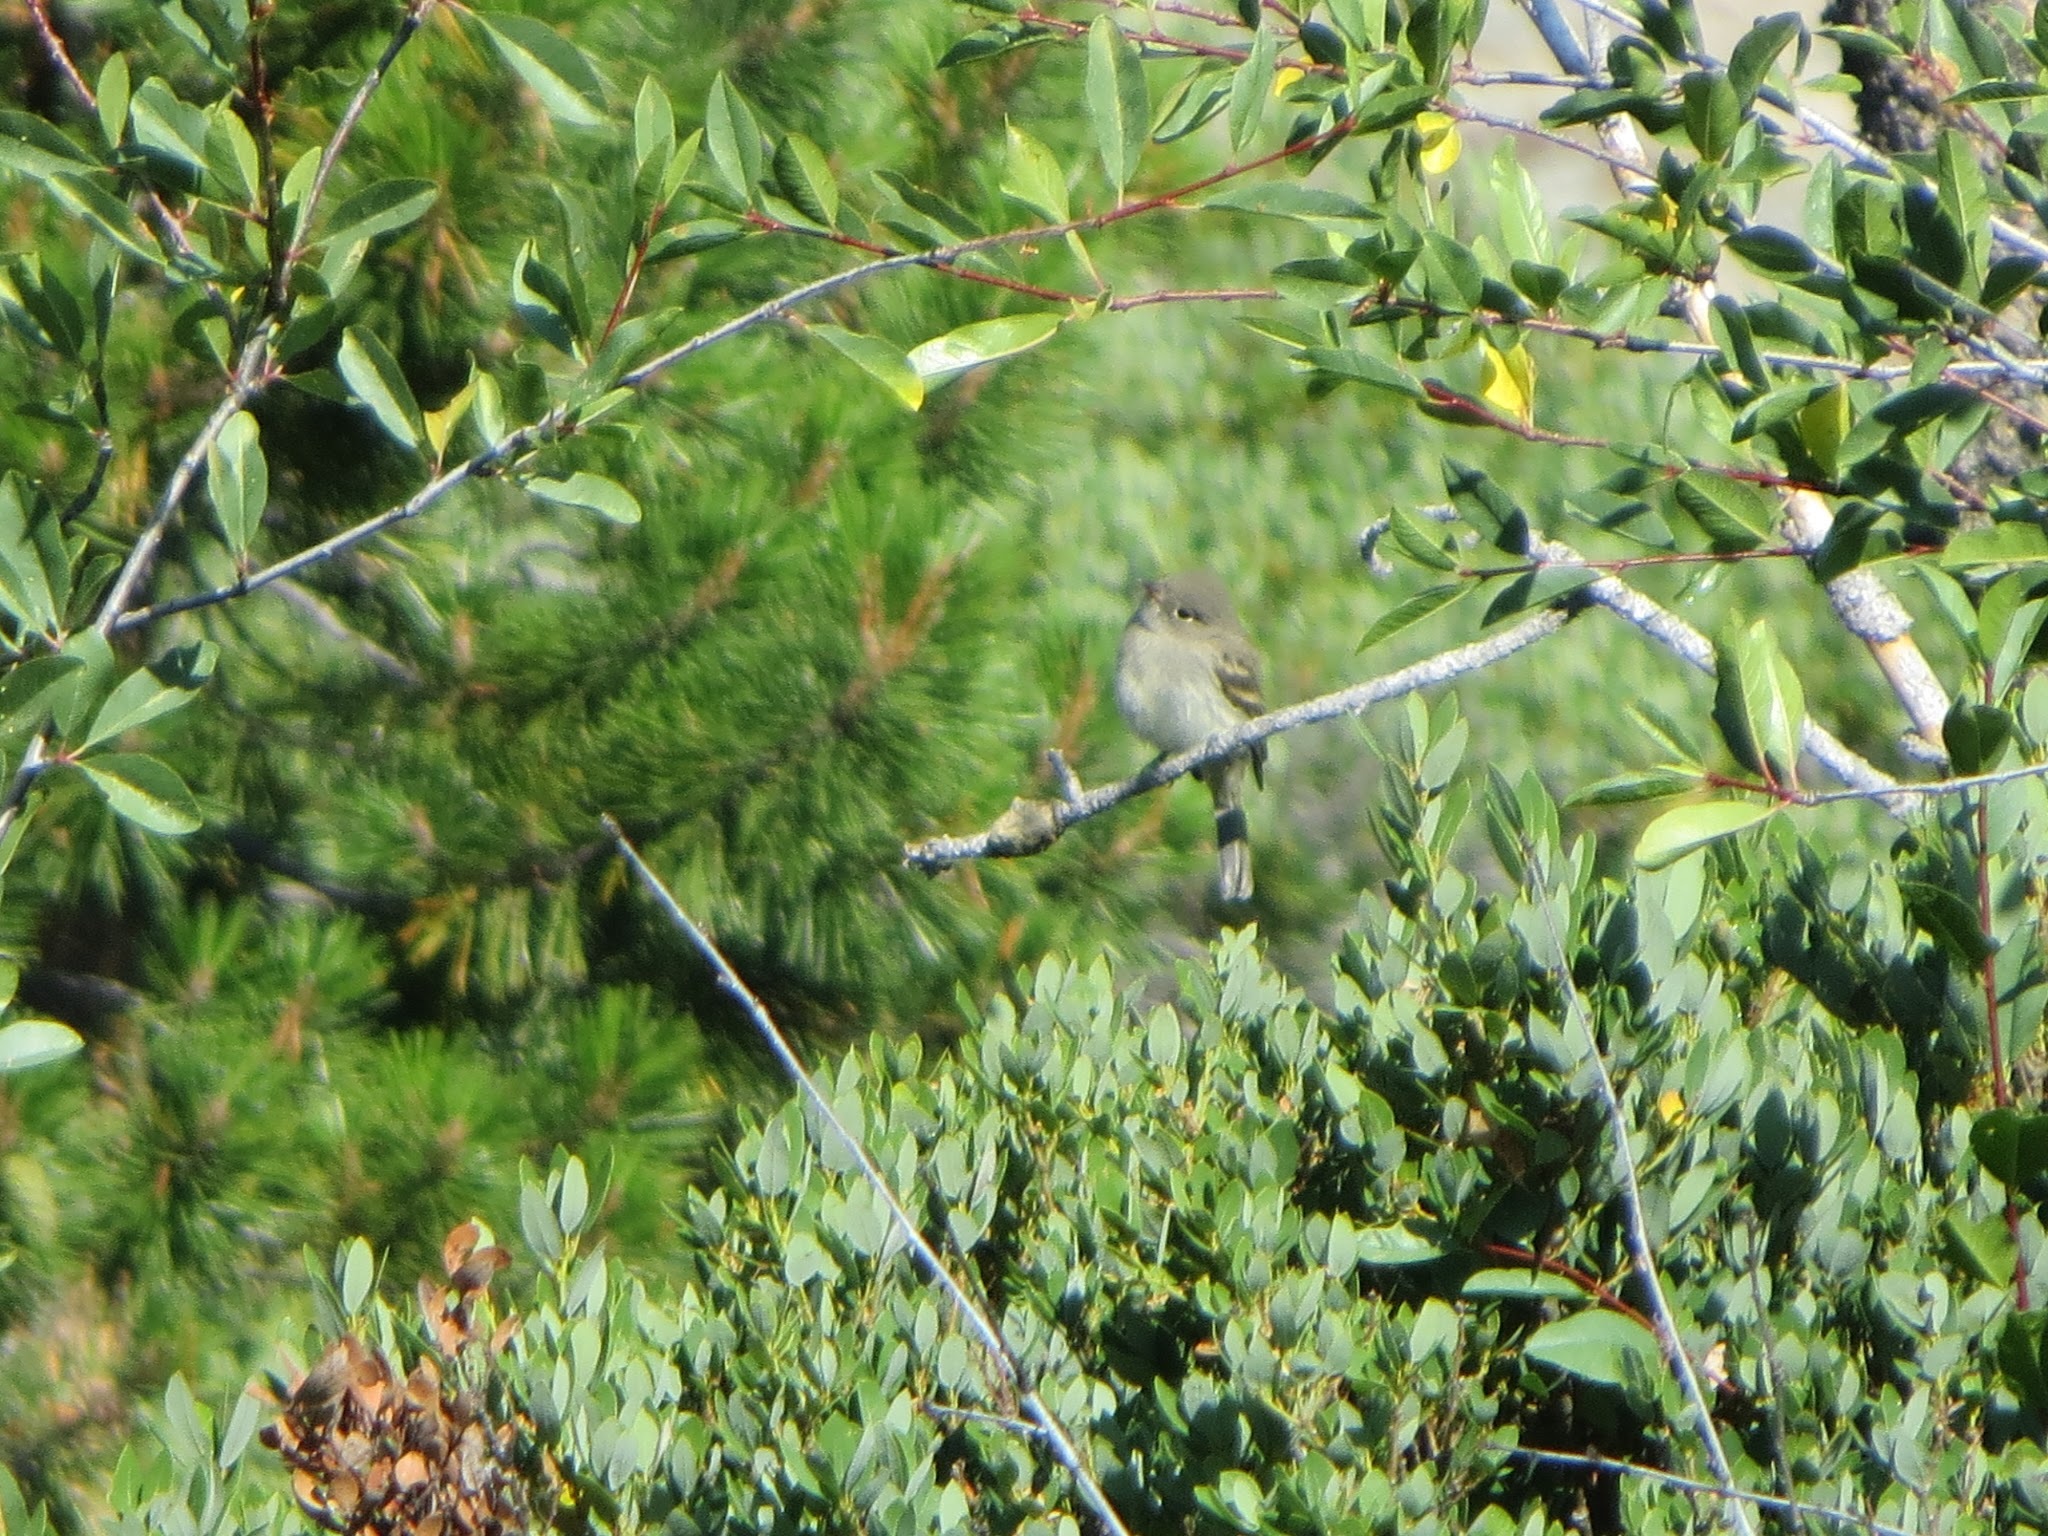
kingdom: Animalia
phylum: Chordata
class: Aves
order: Passeriformes
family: Tyrannidae
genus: Empidonax
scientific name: Empidonax
